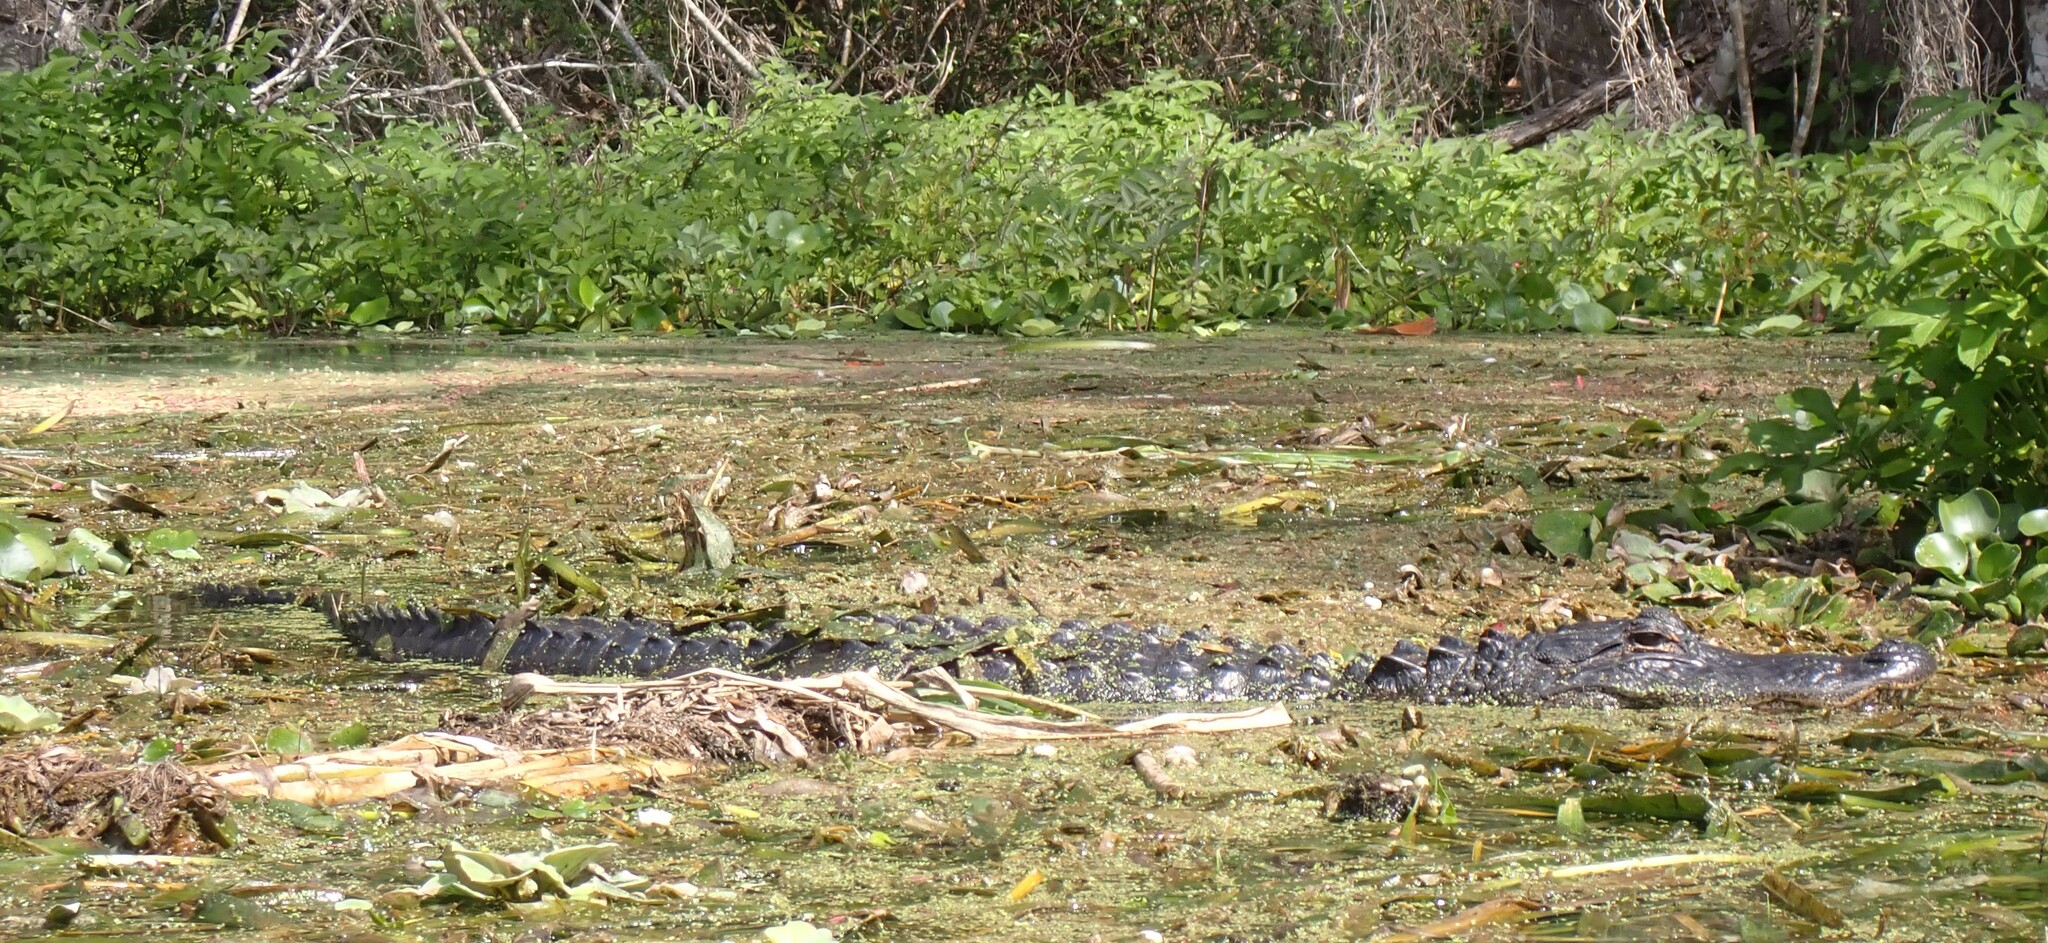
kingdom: Animalia
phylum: Chordata
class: Crocodylia
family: Alligatoridae
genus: Alligator
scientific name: Alligator mississippiensis
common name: American alligator
